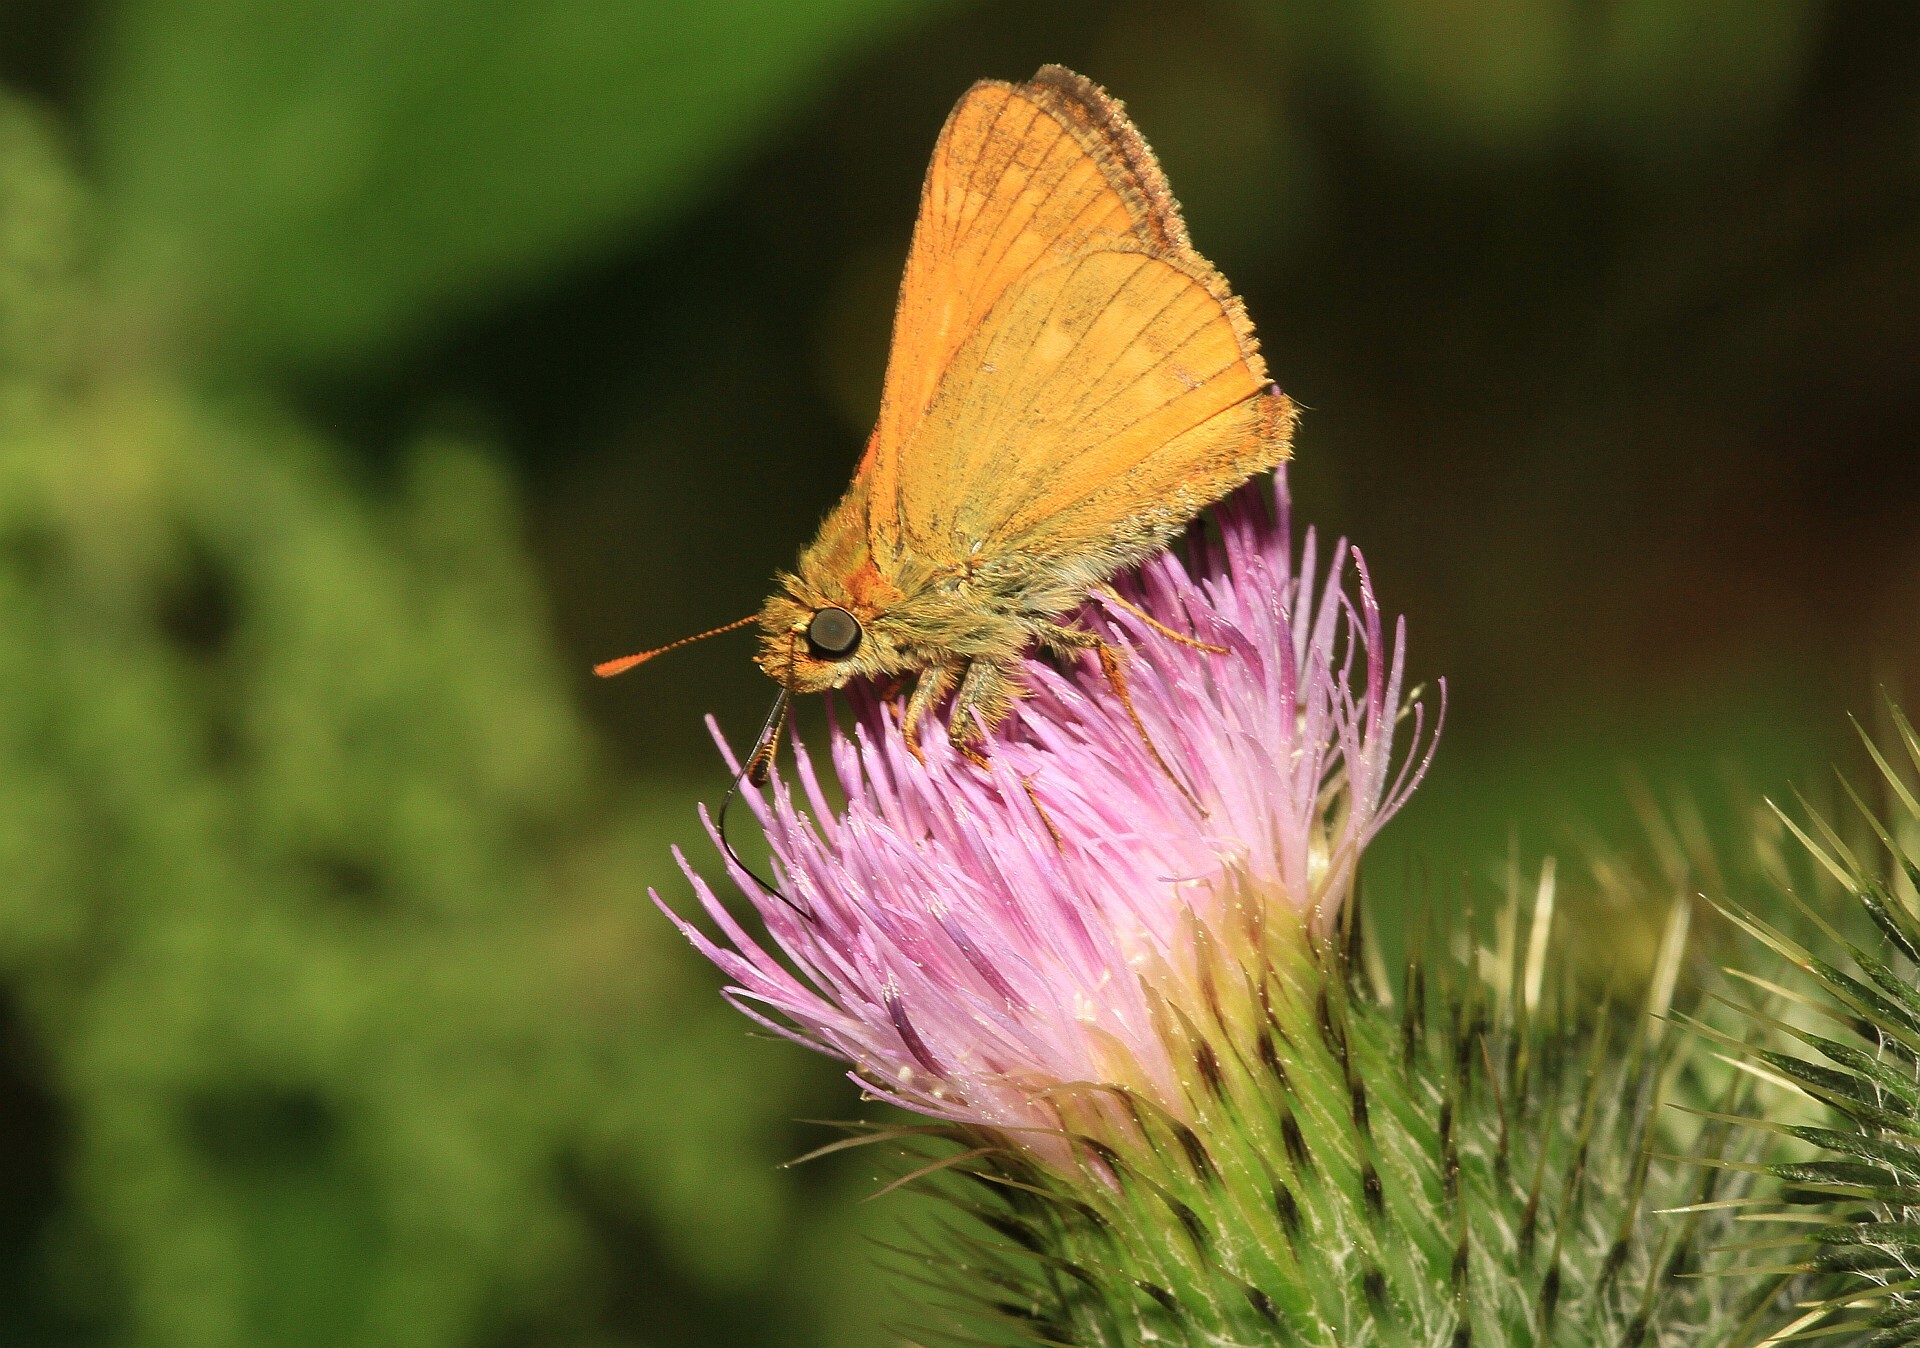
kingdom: Animalia
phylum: Arthropoda
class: Insecta
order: Lepidoptera
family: Hesperiidae
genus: Ochlodes
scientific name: Ochlodes venata
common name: Large skipper
